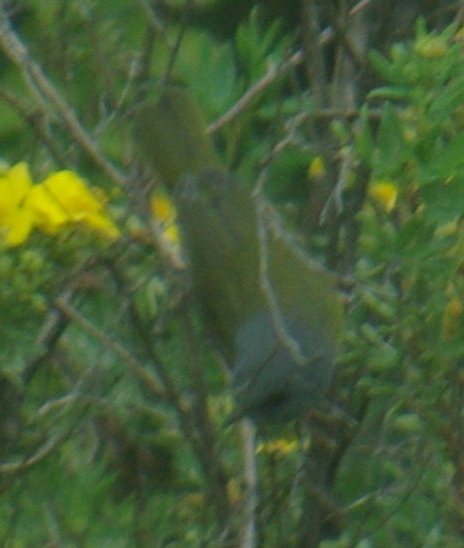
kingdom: Animalia
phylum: Chordata
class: Aves
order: Passeriformes
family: Parulidae
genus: Geothlypis
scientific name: Geothlypis philadelphia
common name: Mourning warbler
